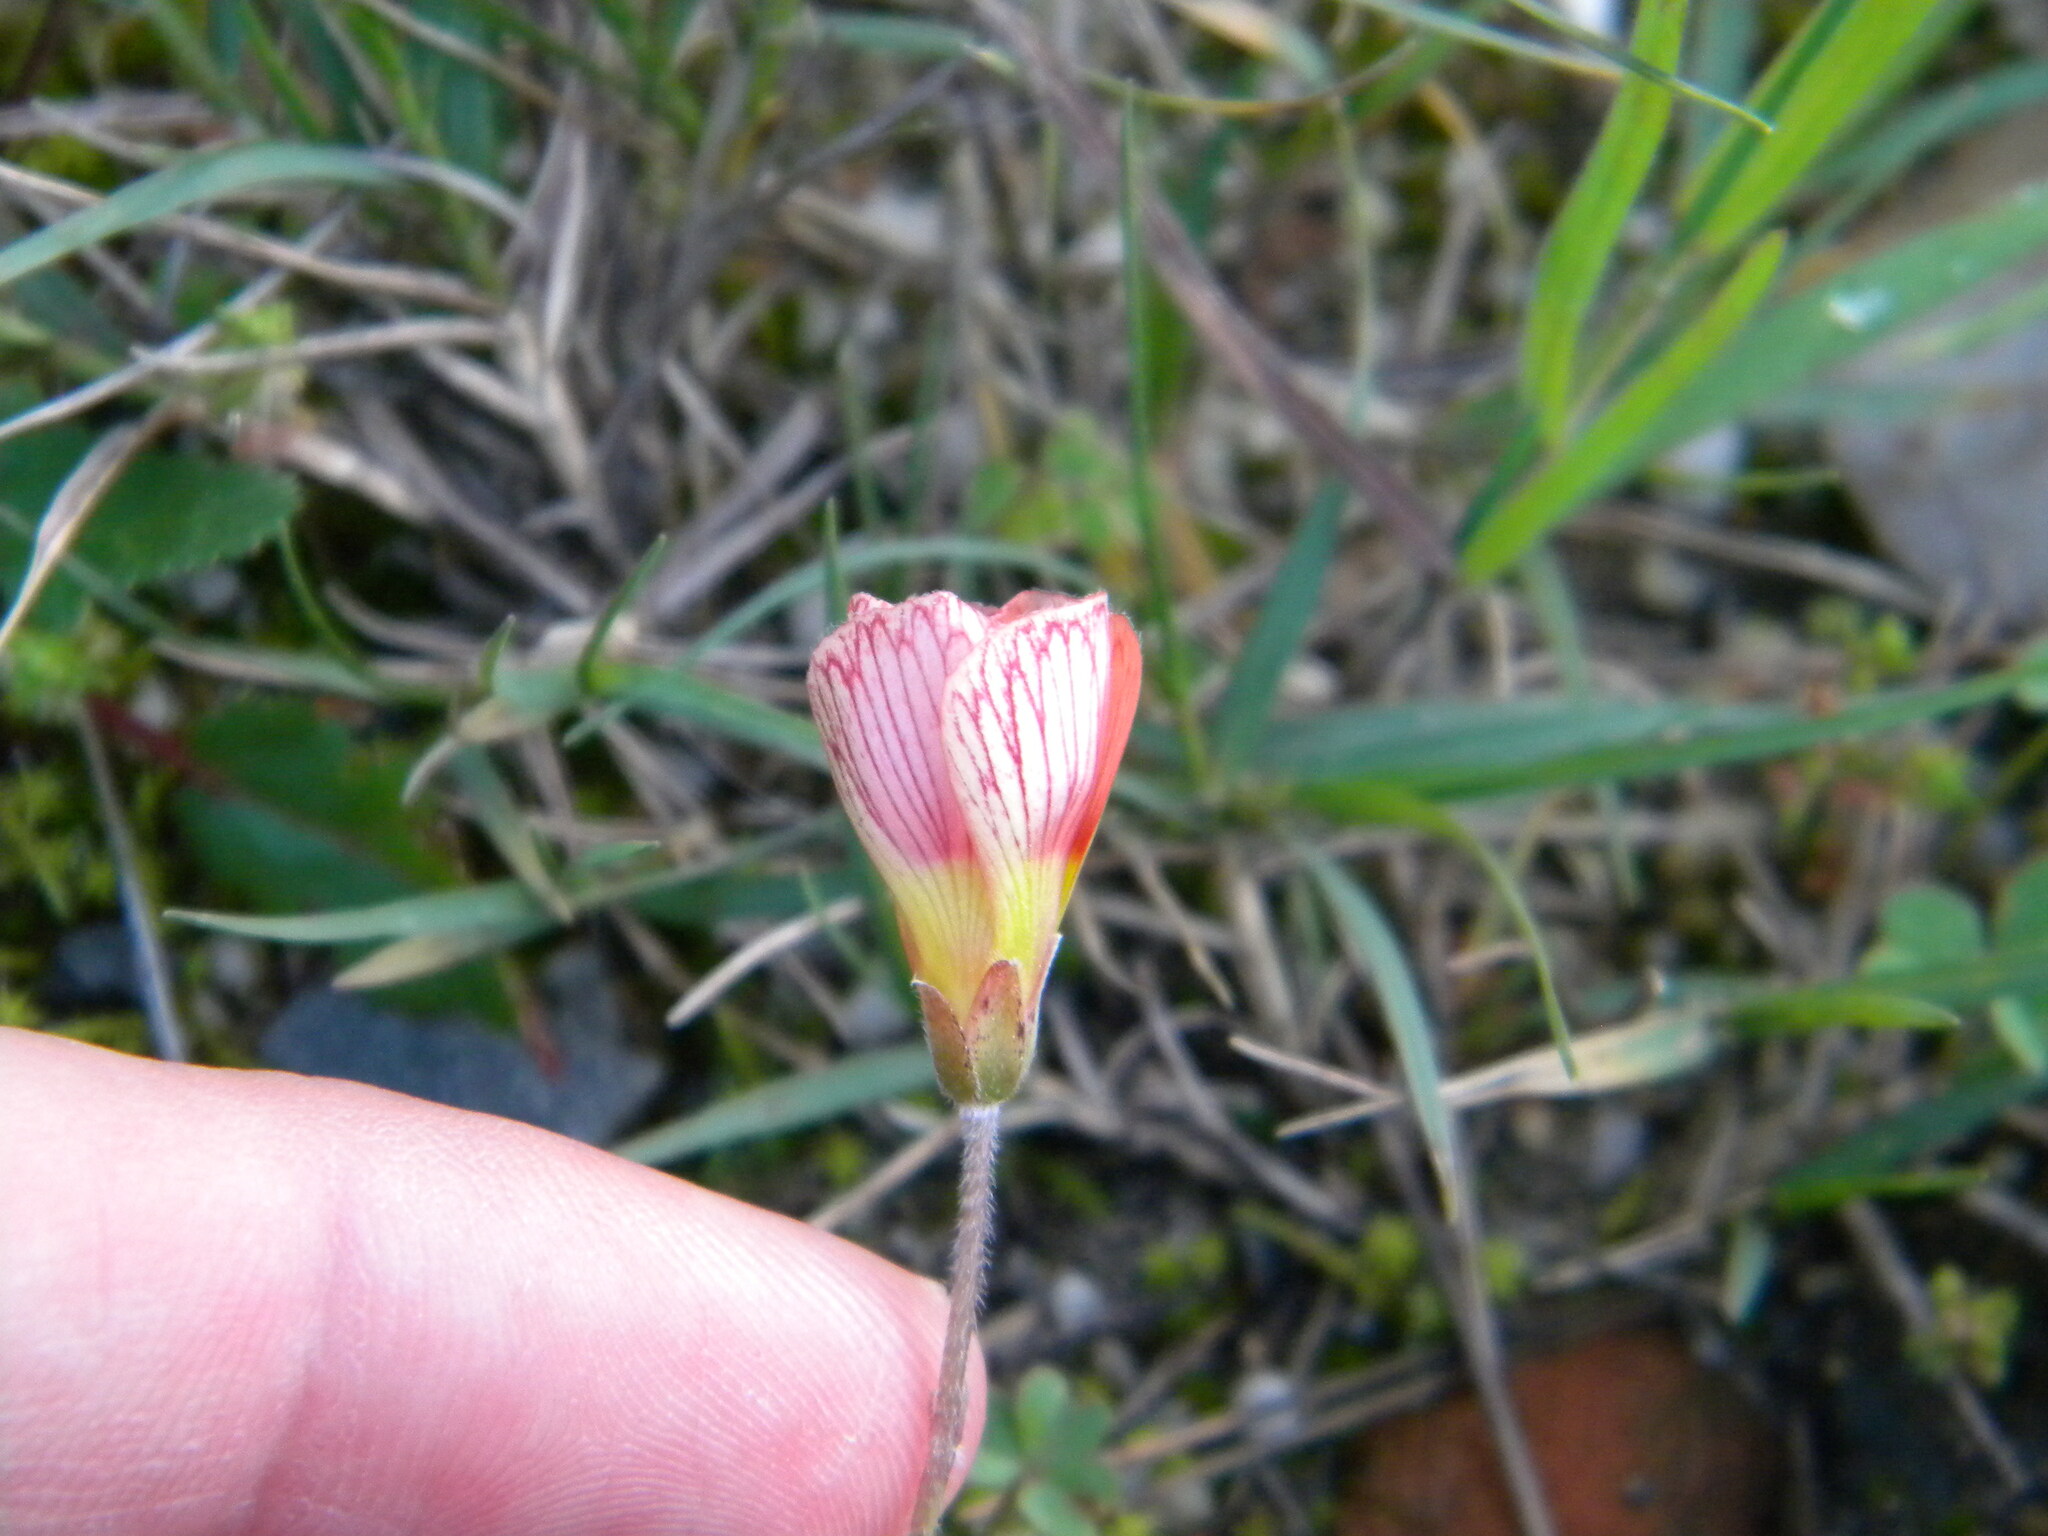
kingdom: Plantae
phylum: Tracheophyta
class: Magnoliopsida
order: Oxalidales
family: Oxalidaceae
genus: Oxalis
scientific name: Oxalis obtusa
